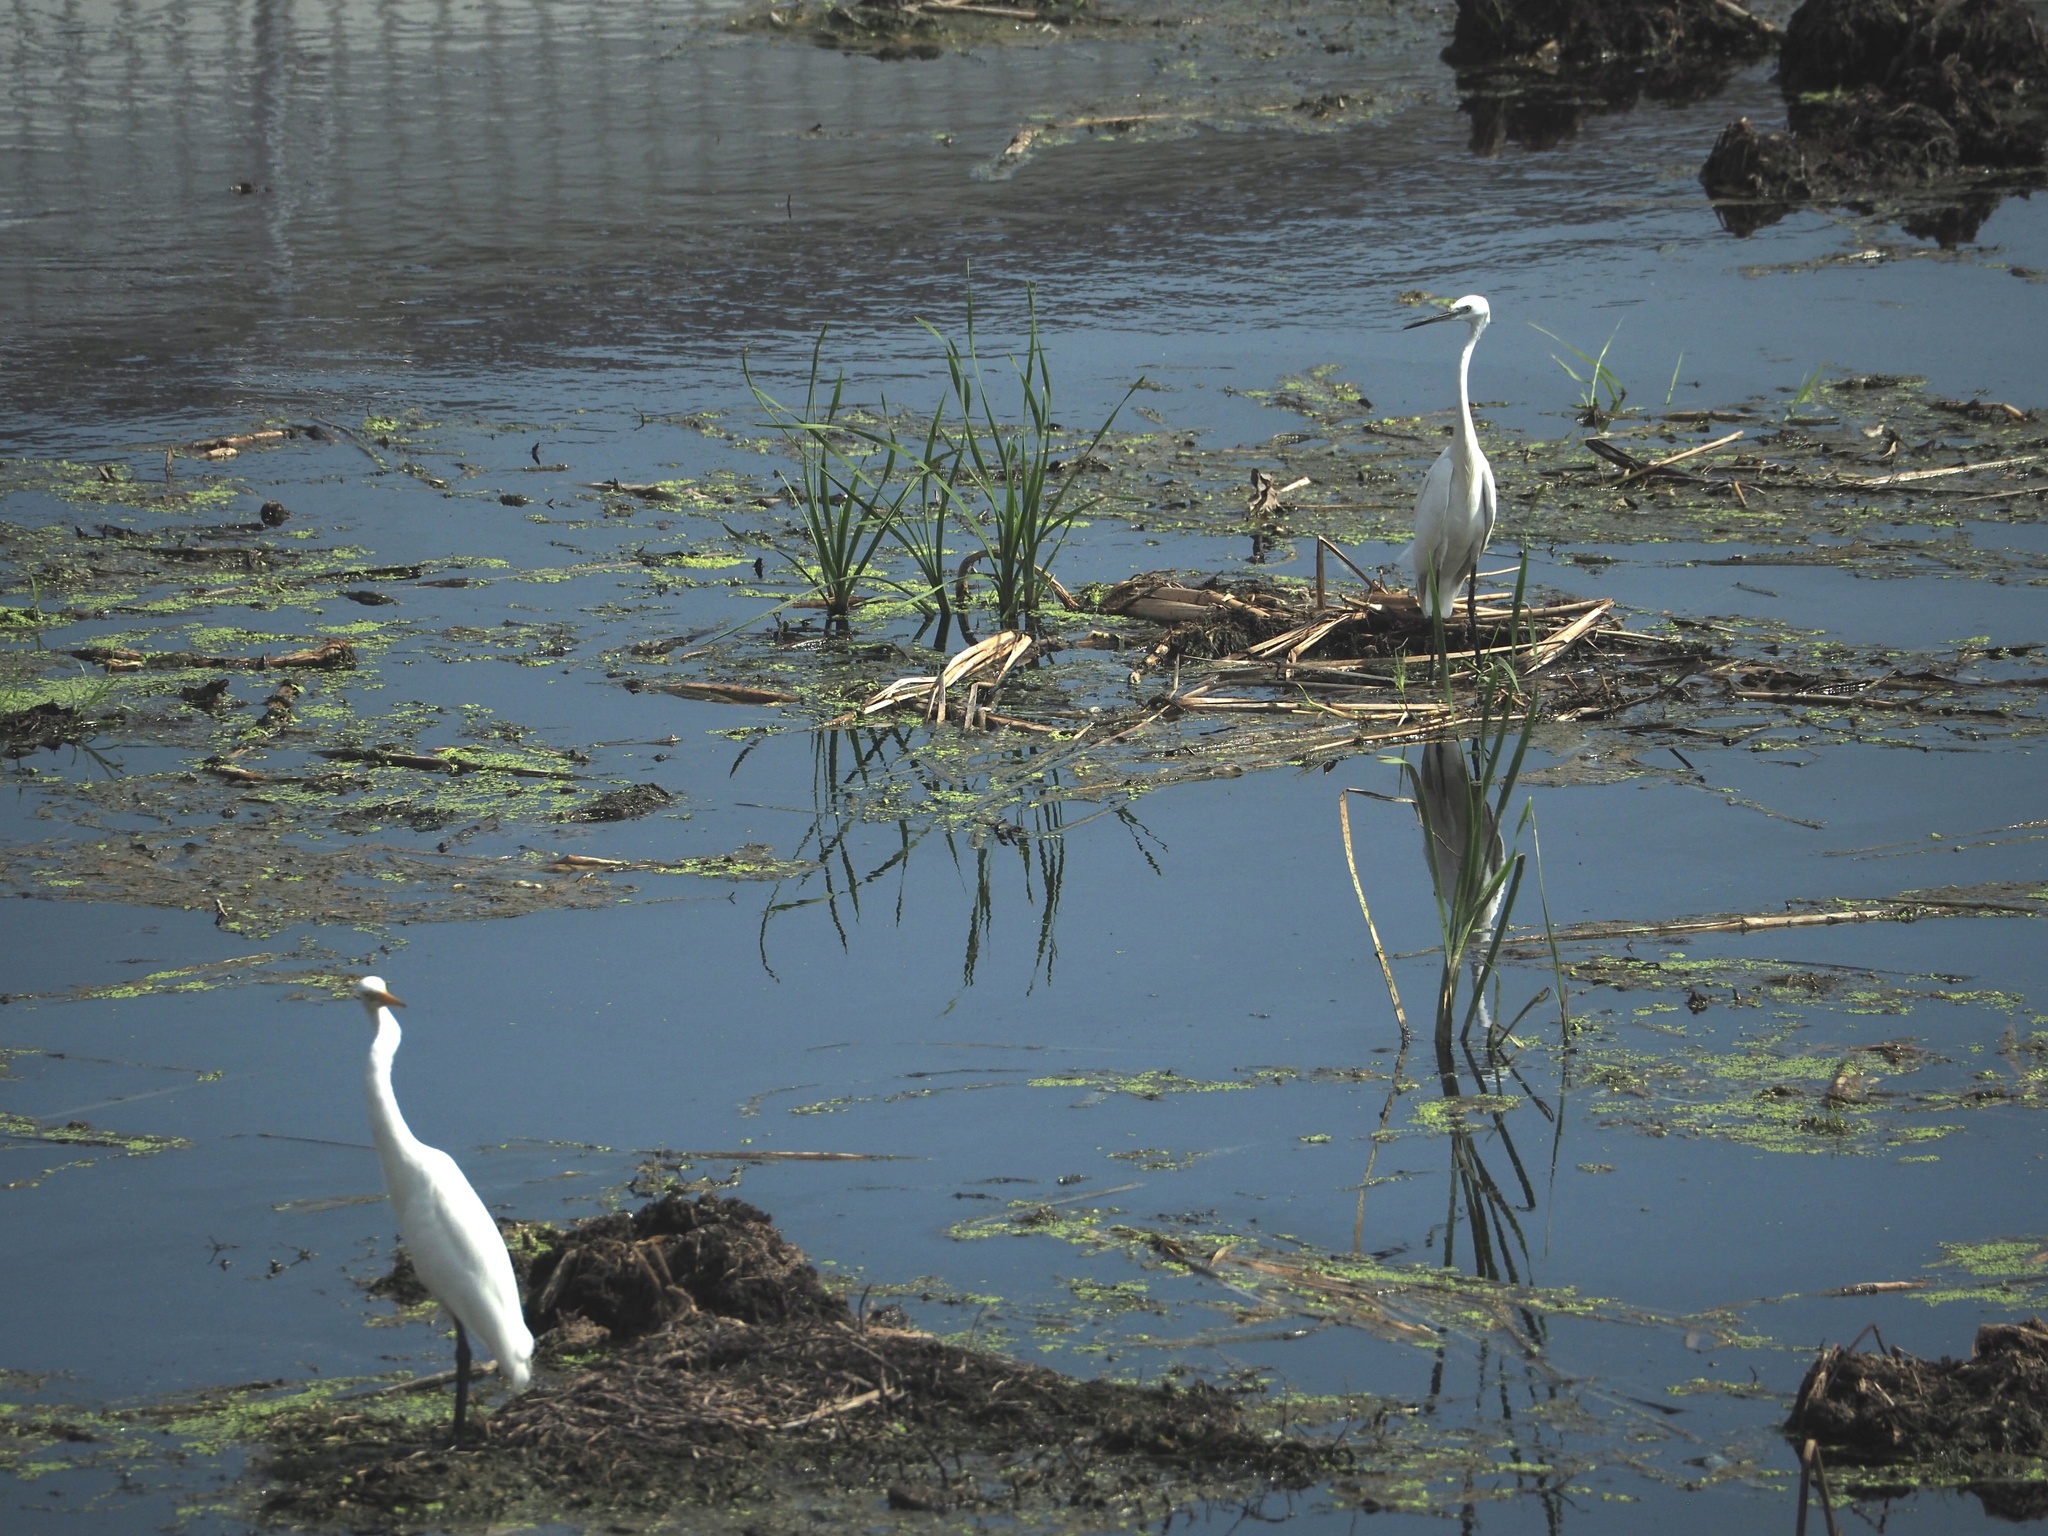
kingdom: Animalia
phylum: Chordata
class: Aves
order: Pelecaniformes
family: Ardeidae
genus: Egretta
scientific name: Egretta intermedia
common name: Intermediate egret
